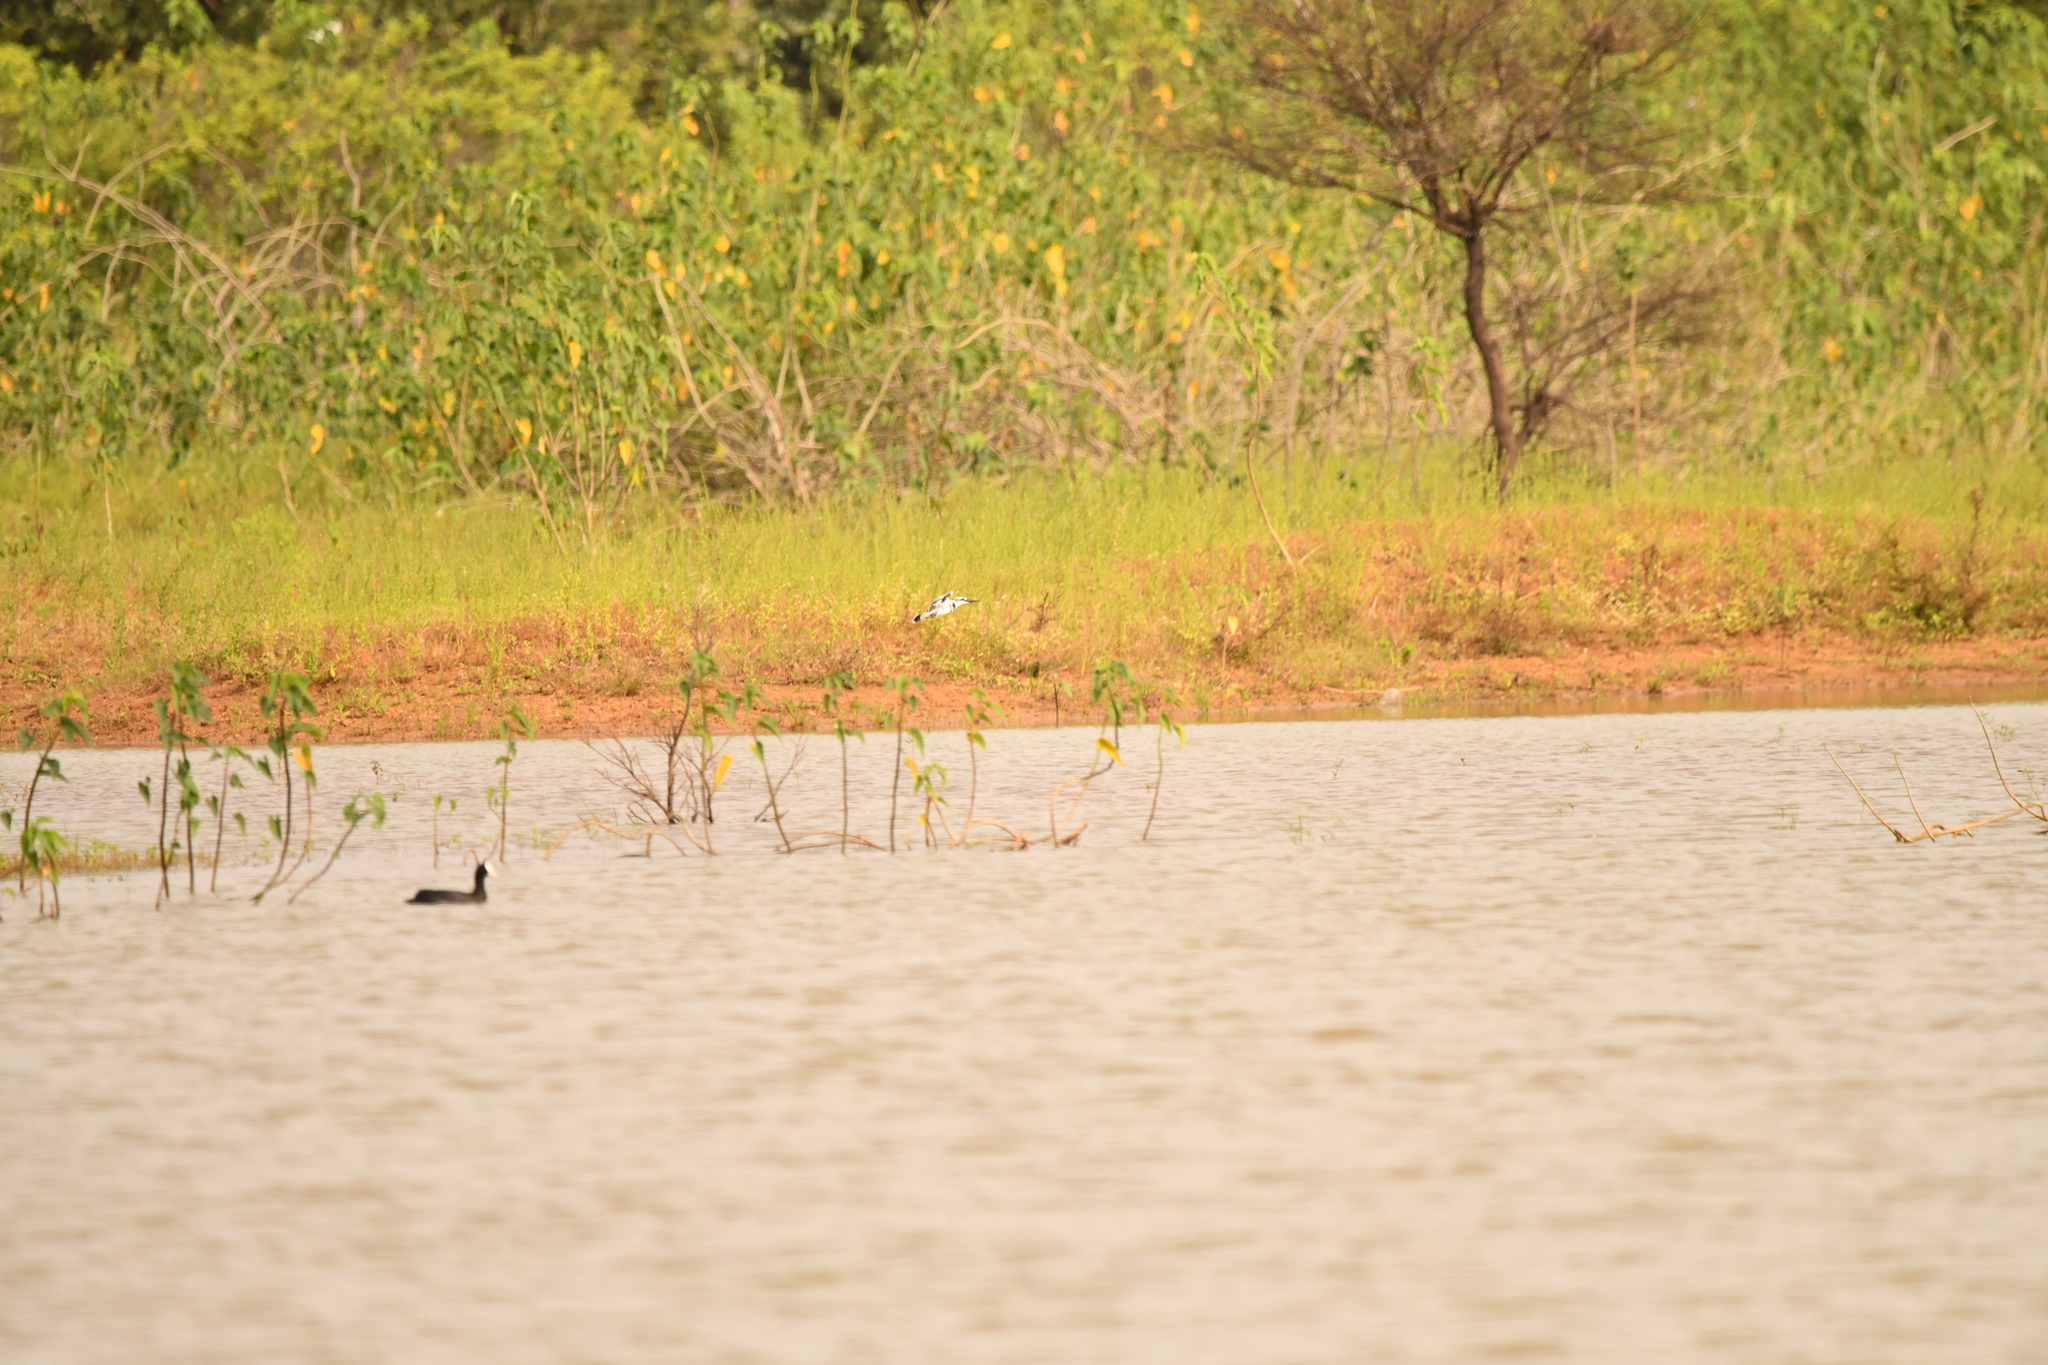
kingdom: Animalia
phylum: Chordata
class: Aves
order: Coraciiformes
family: Alcedinidae
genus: Ceryle
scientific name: Ceryle rudis
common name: Pied kingfisher
